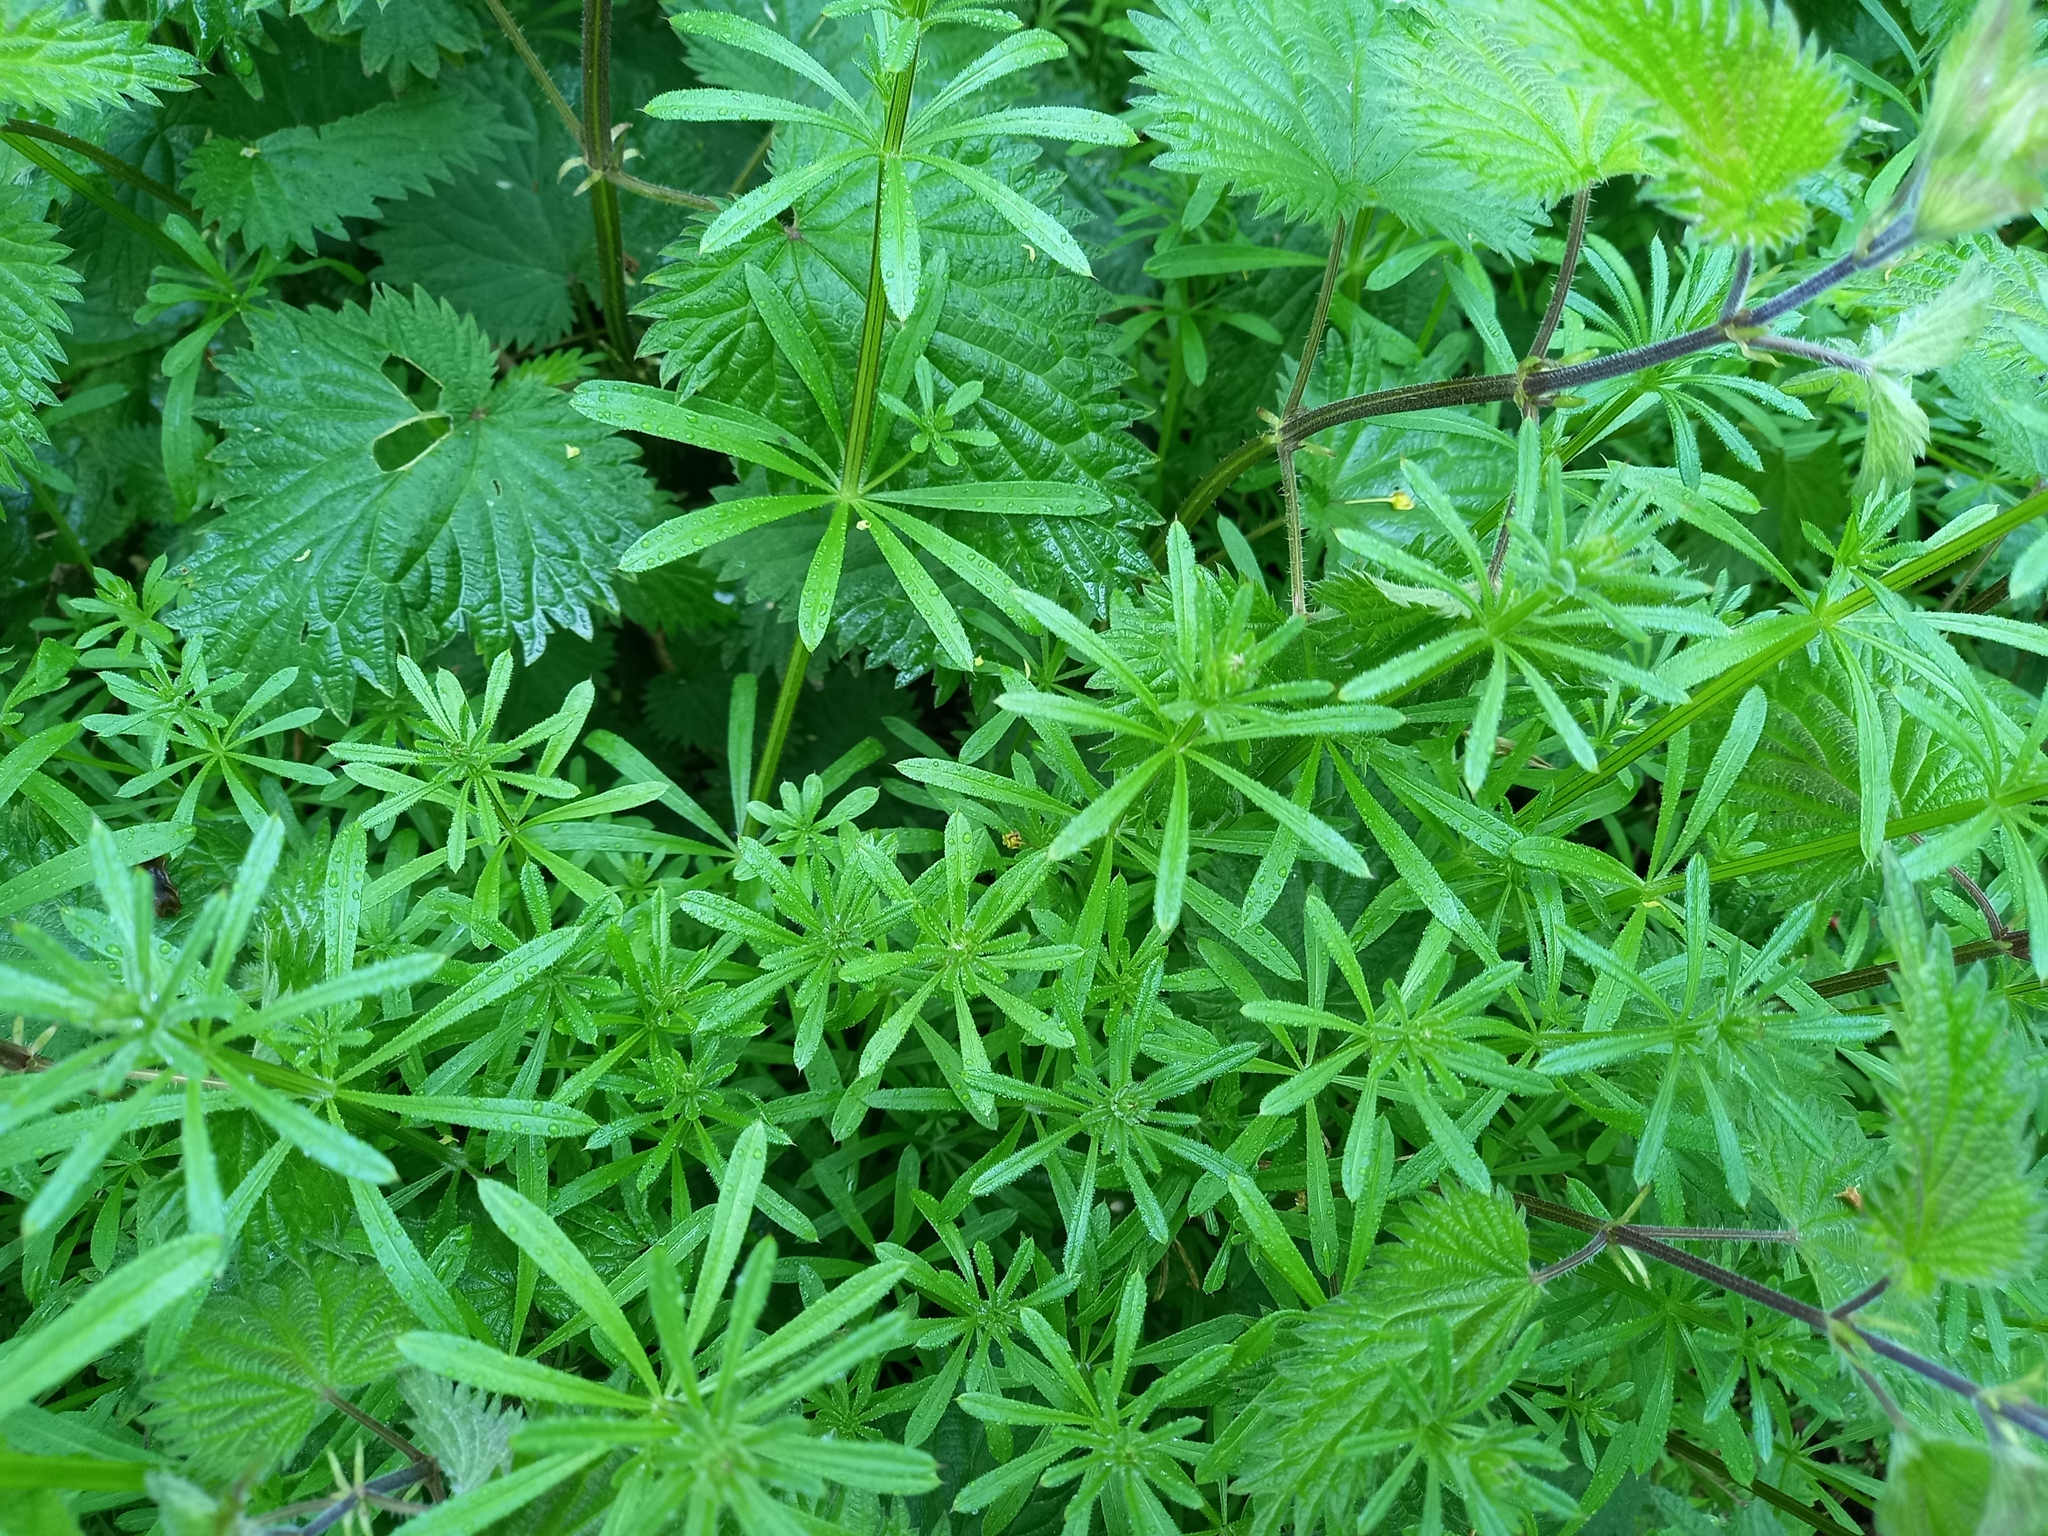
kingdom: Plantae
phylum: Tracheophyta
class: Magnoliopsida
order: Gentianales
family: Rubiaceae
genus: Galium
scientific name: Galium aparine
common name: Cleavers
